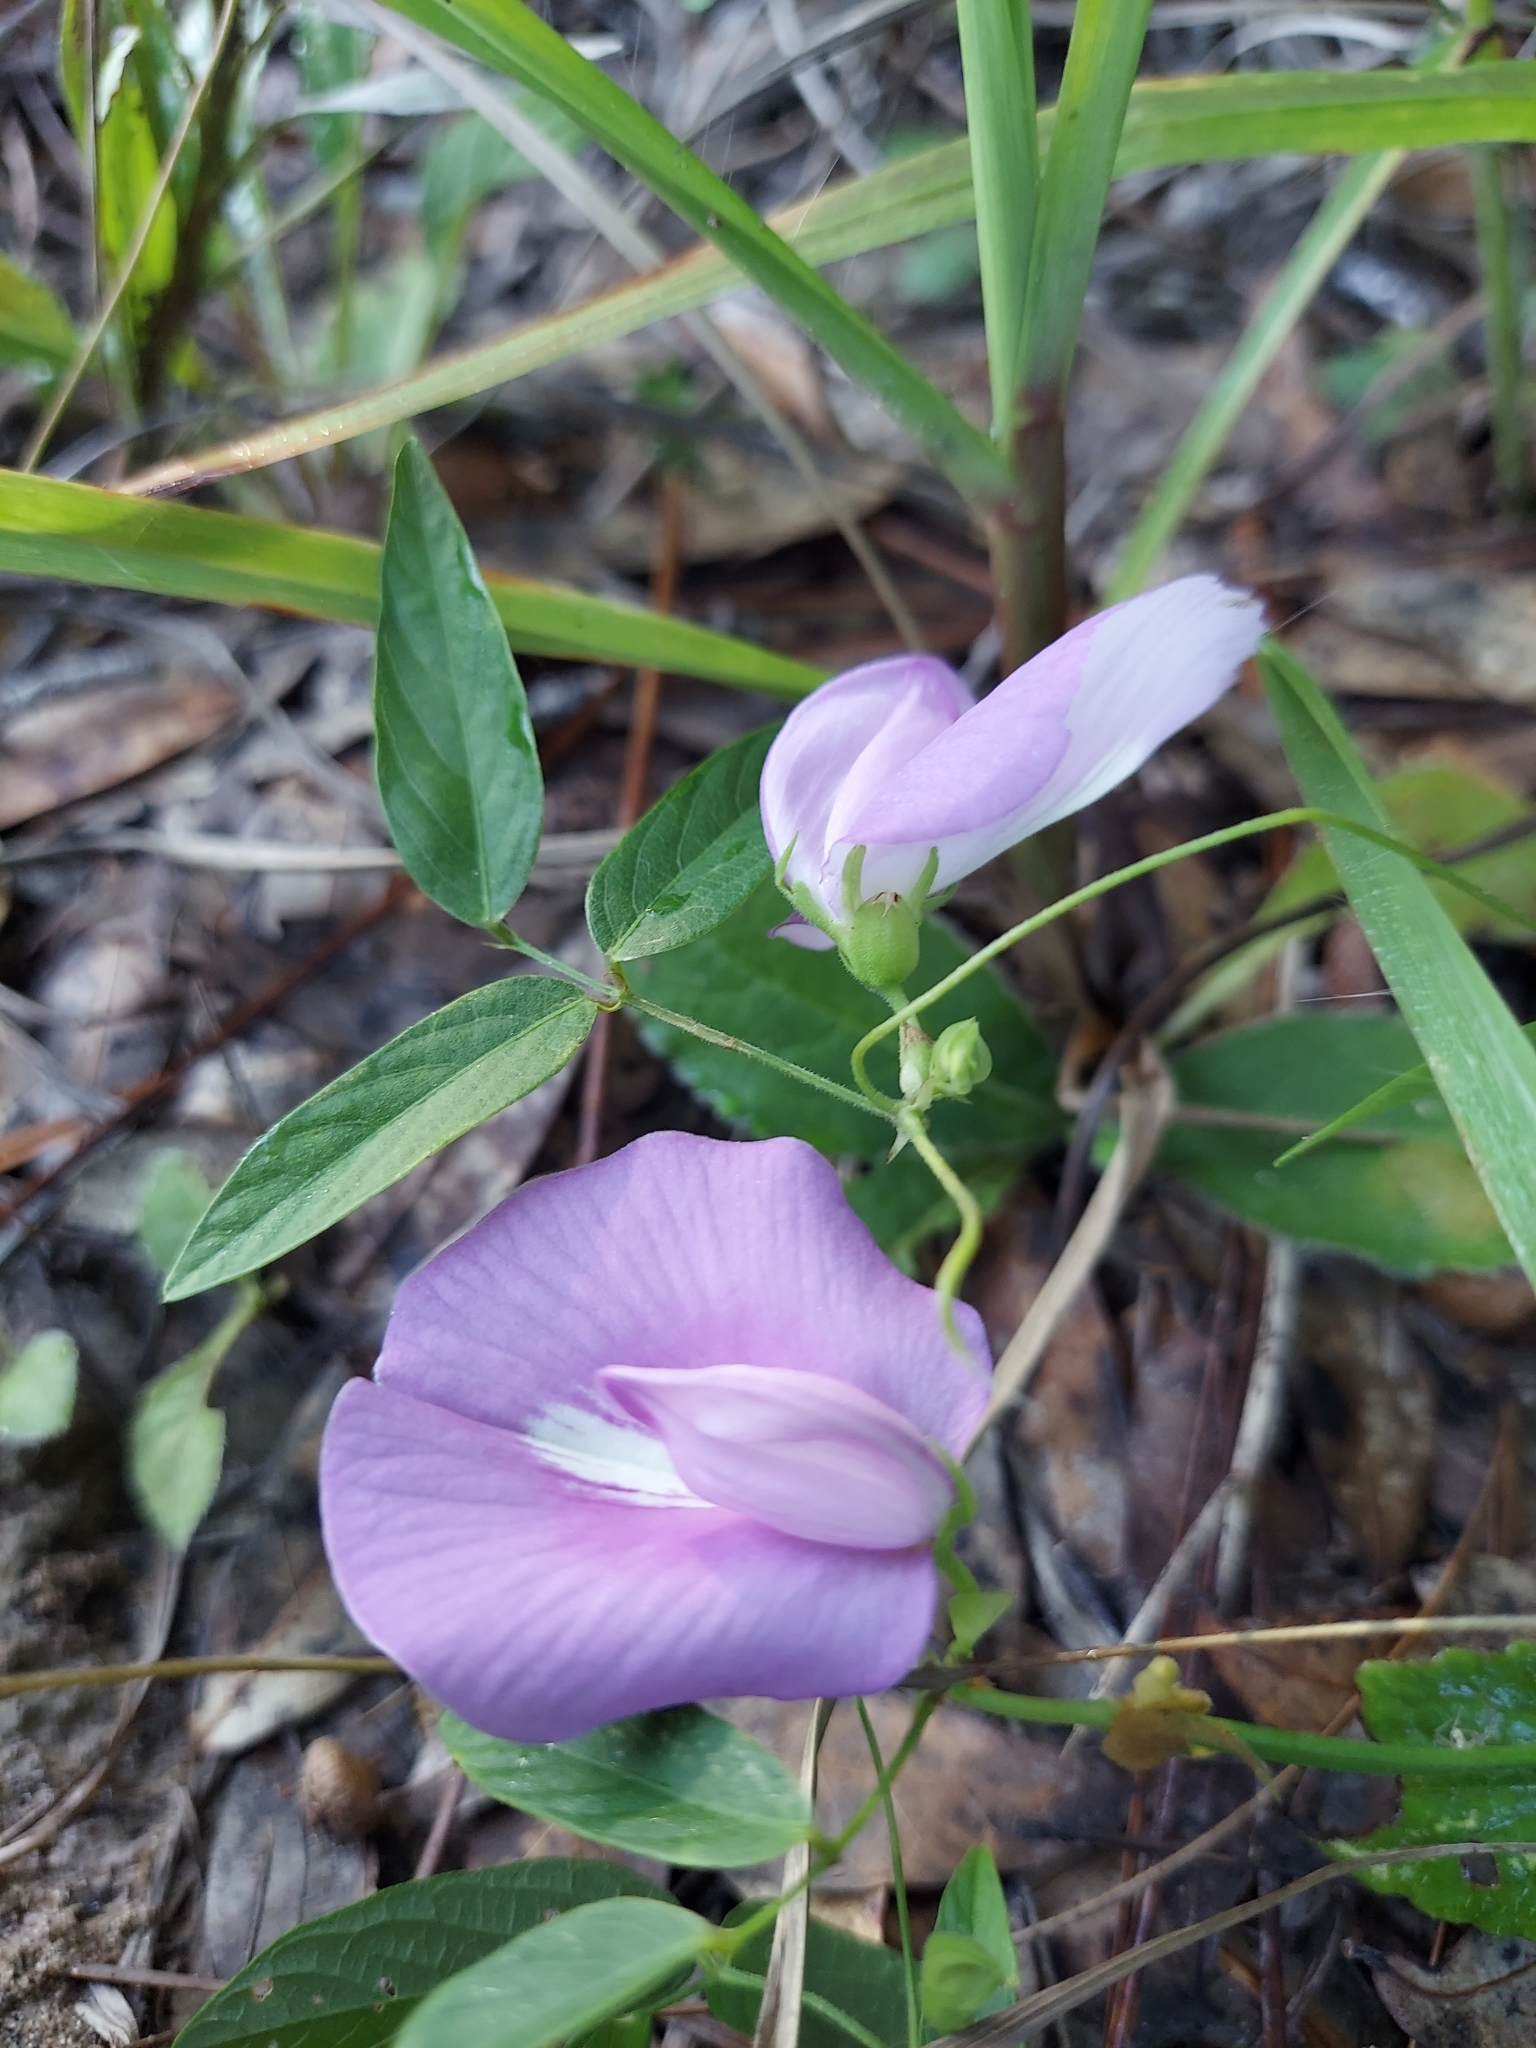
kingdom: Plantae
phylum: Tracheophyta
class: Magnoliopsida
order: Fabales
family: Fabaceae
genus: Centrosema
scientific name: Centrosema virginianum
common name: Butterfly-pea
